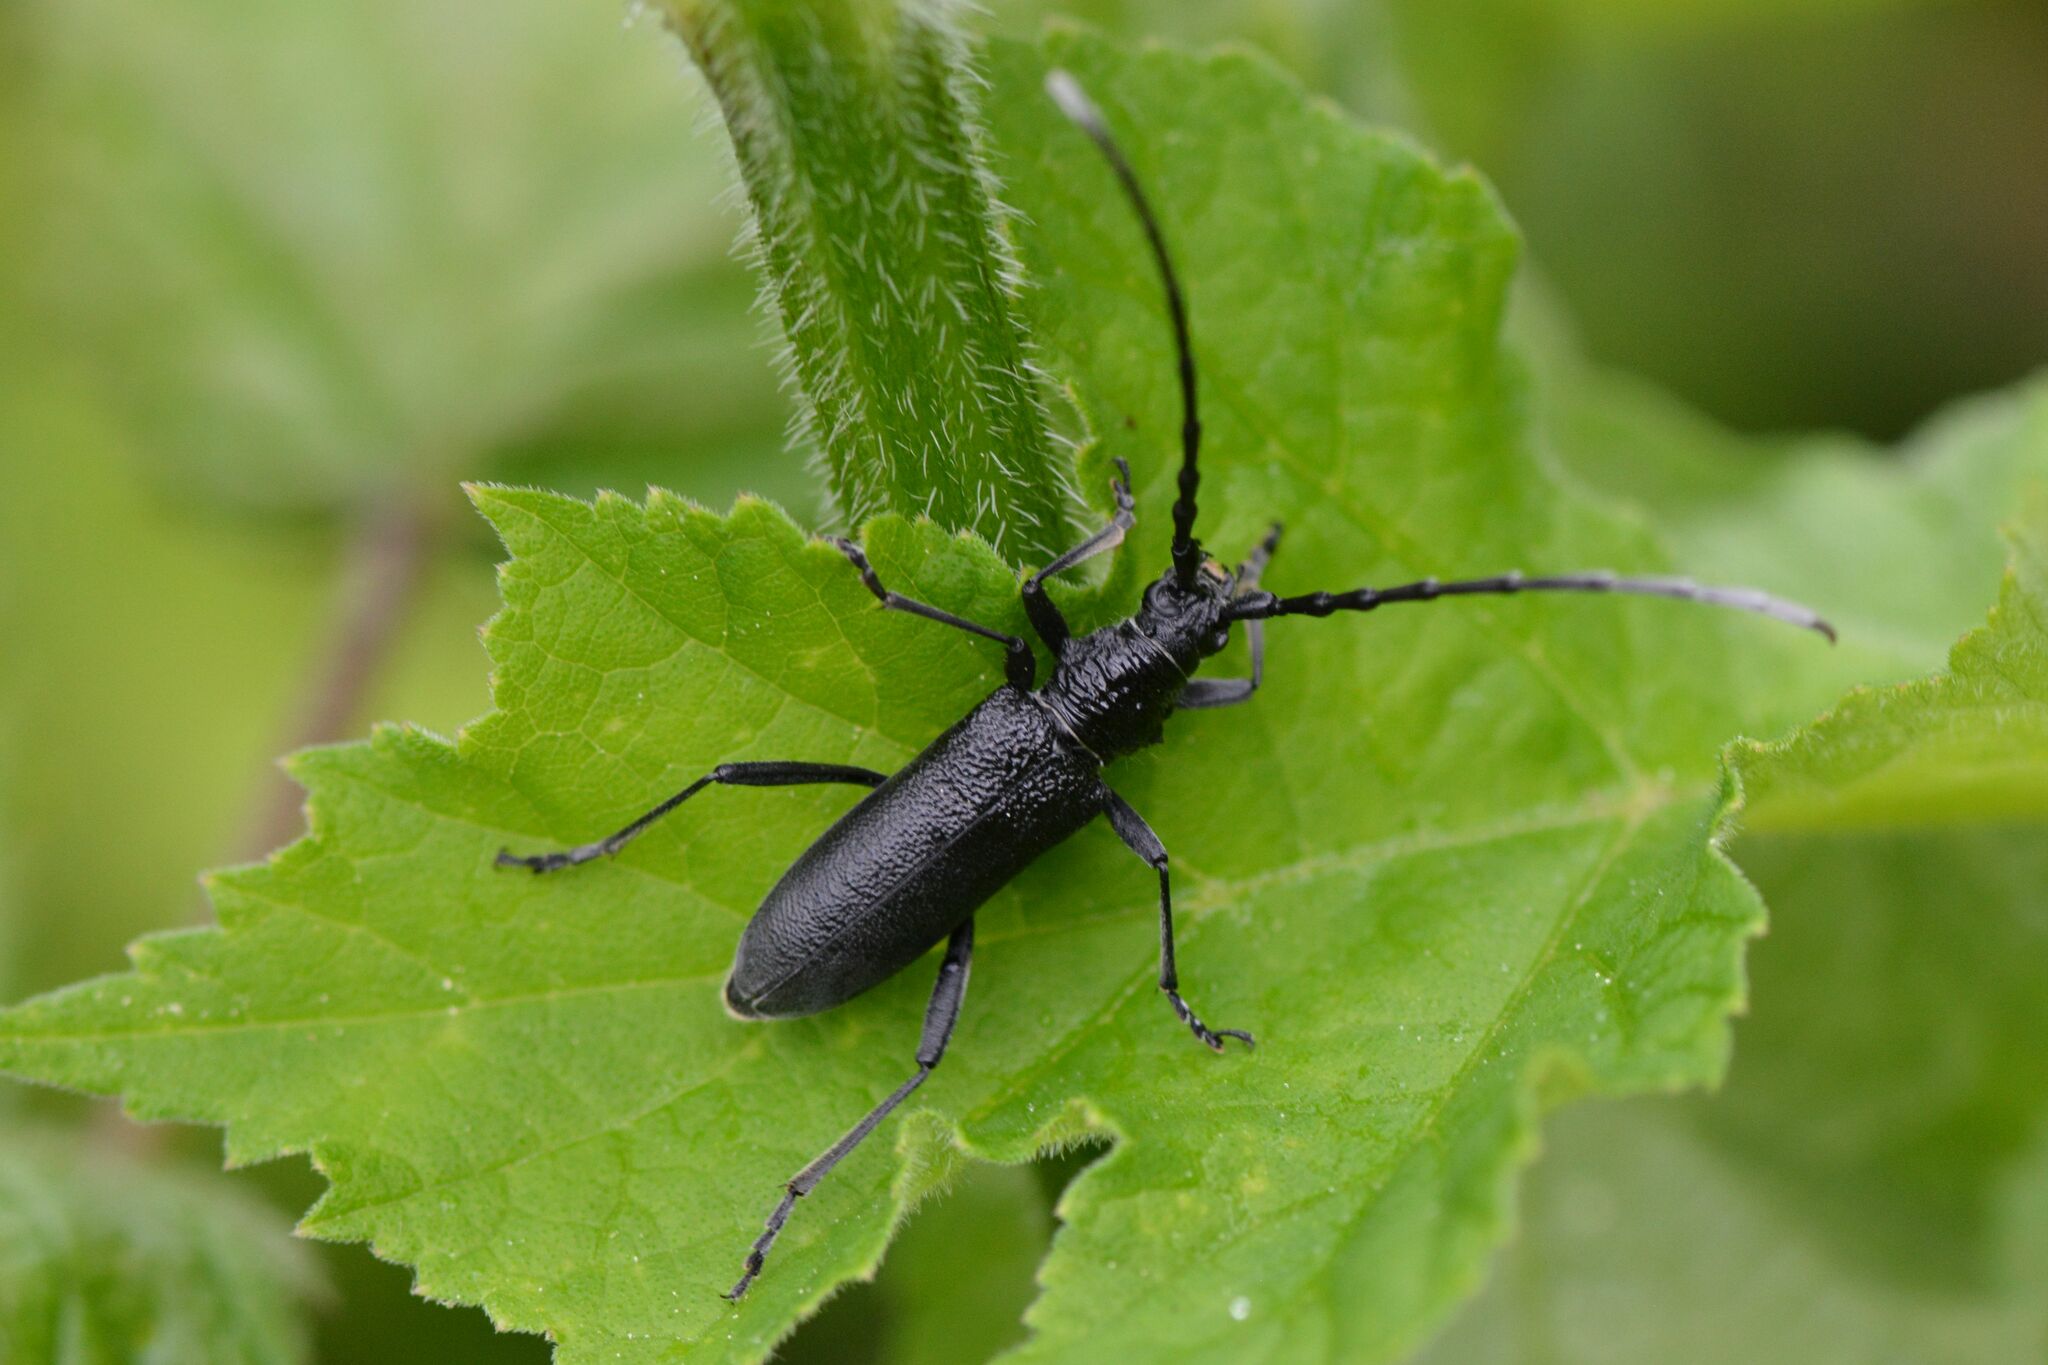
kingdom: Animalia
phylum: Arthropoda
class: Insecta
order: Coleoptera
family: Cerambycidae
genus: Cerambyx
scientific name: Cerambyx scopolii
